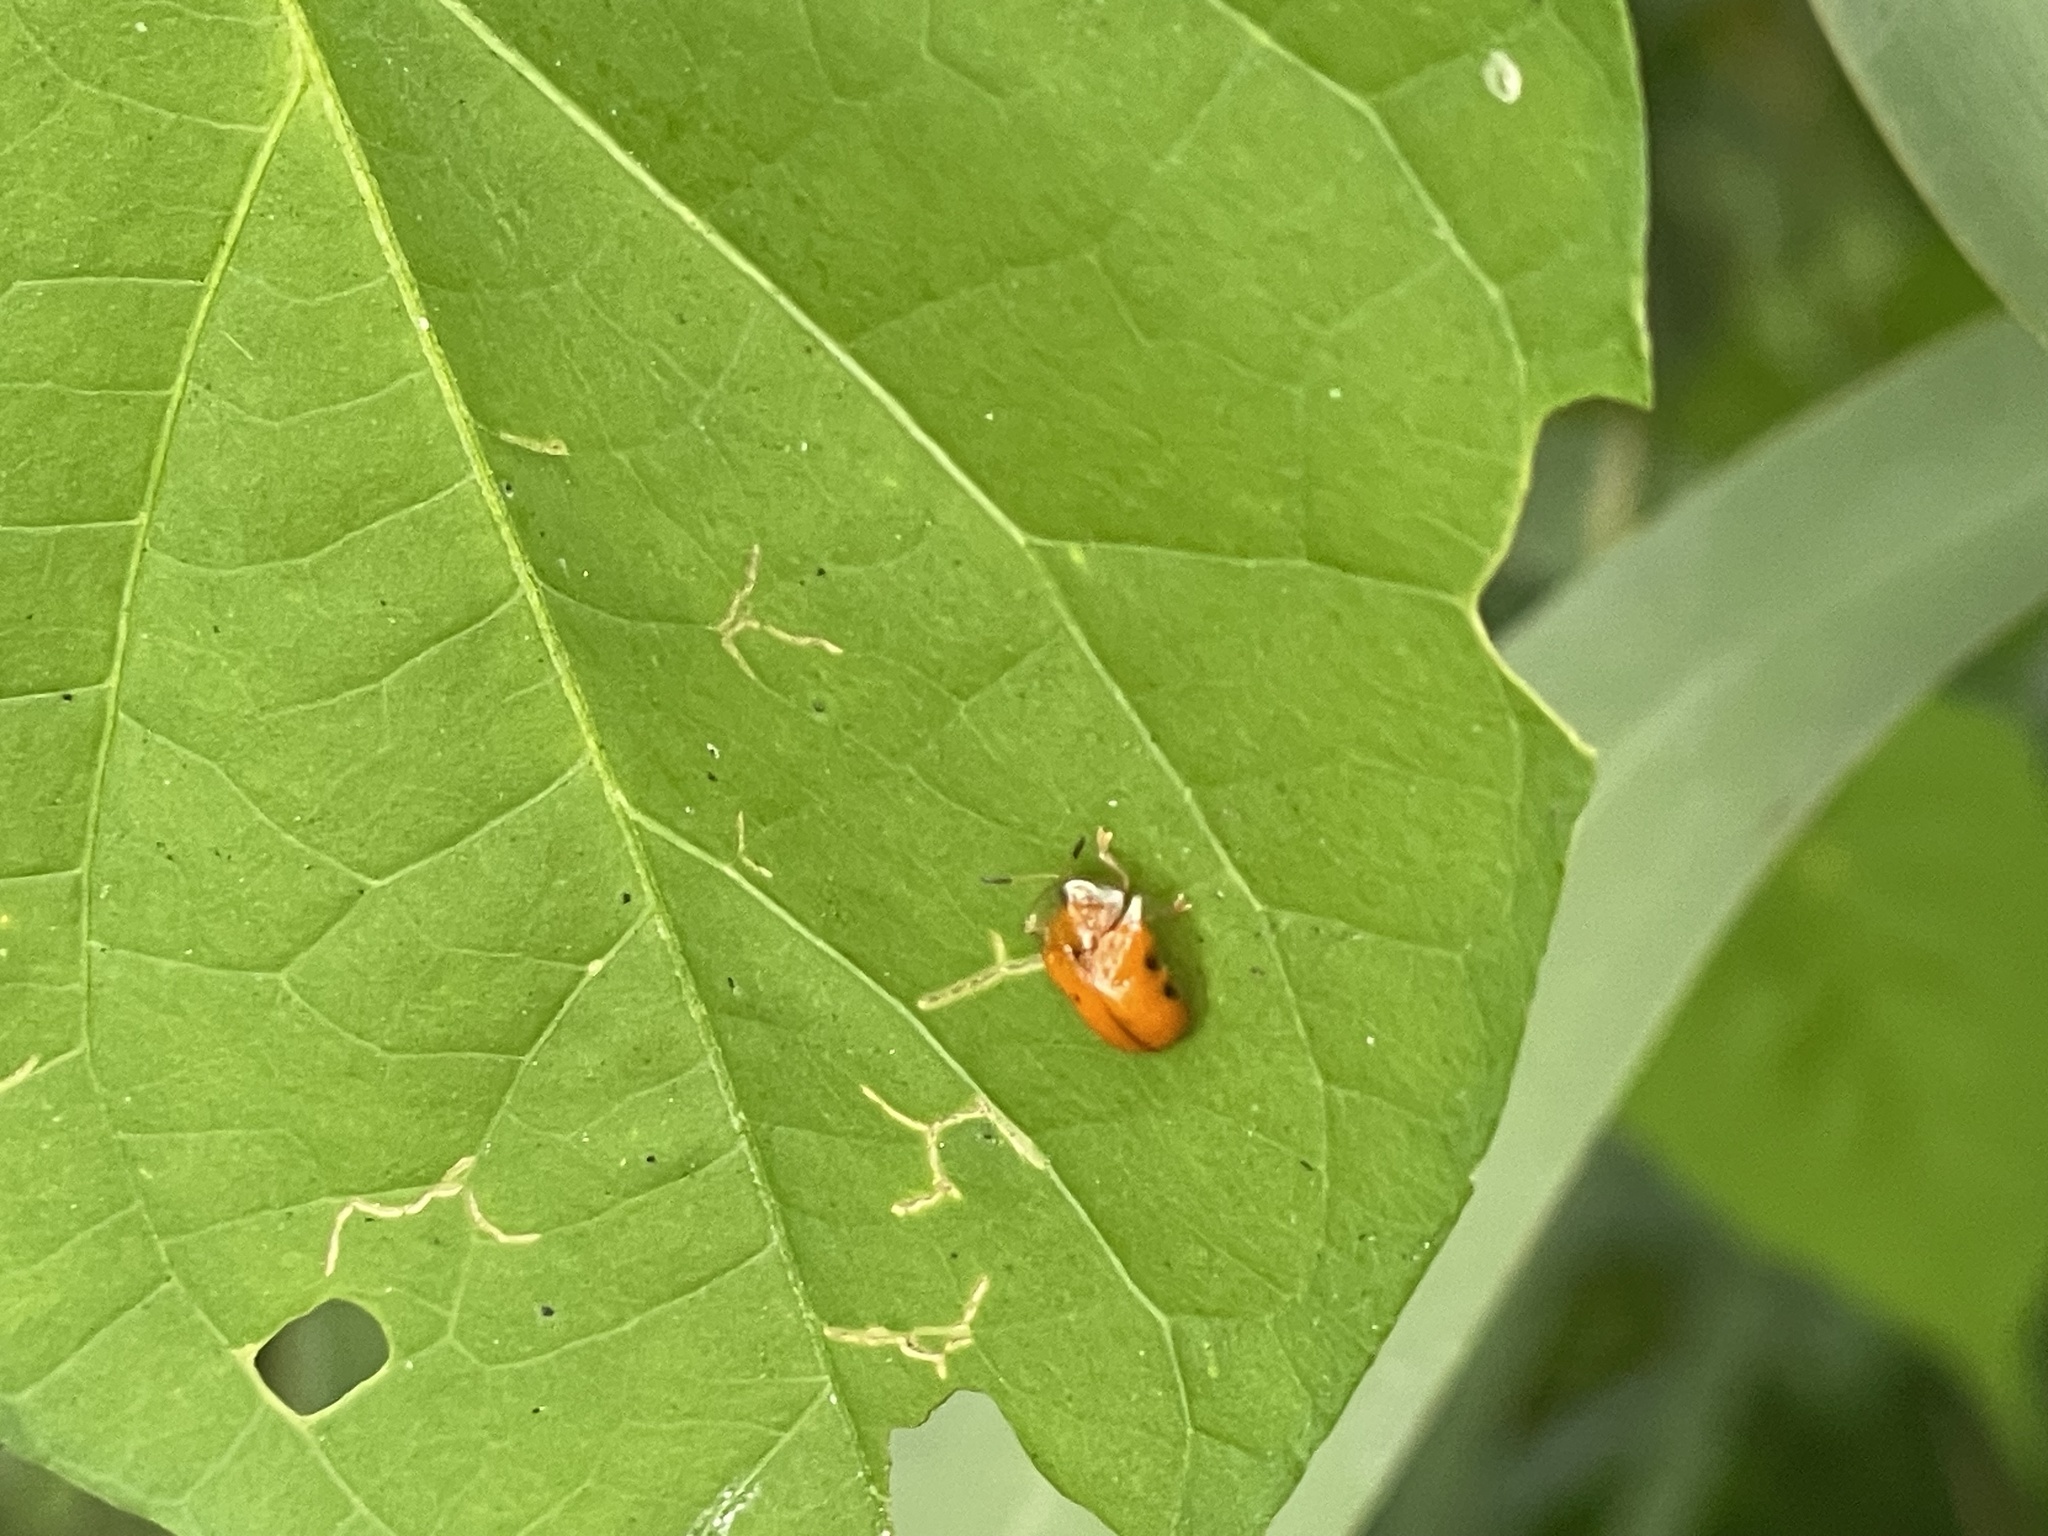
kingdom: Animalia
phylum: Arthropoda
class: Insecta
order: Coleoptera
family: Chrysomelidae
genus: Charidotella
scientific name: Charidotella sexpunctata
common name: Golden tortoise beetle
